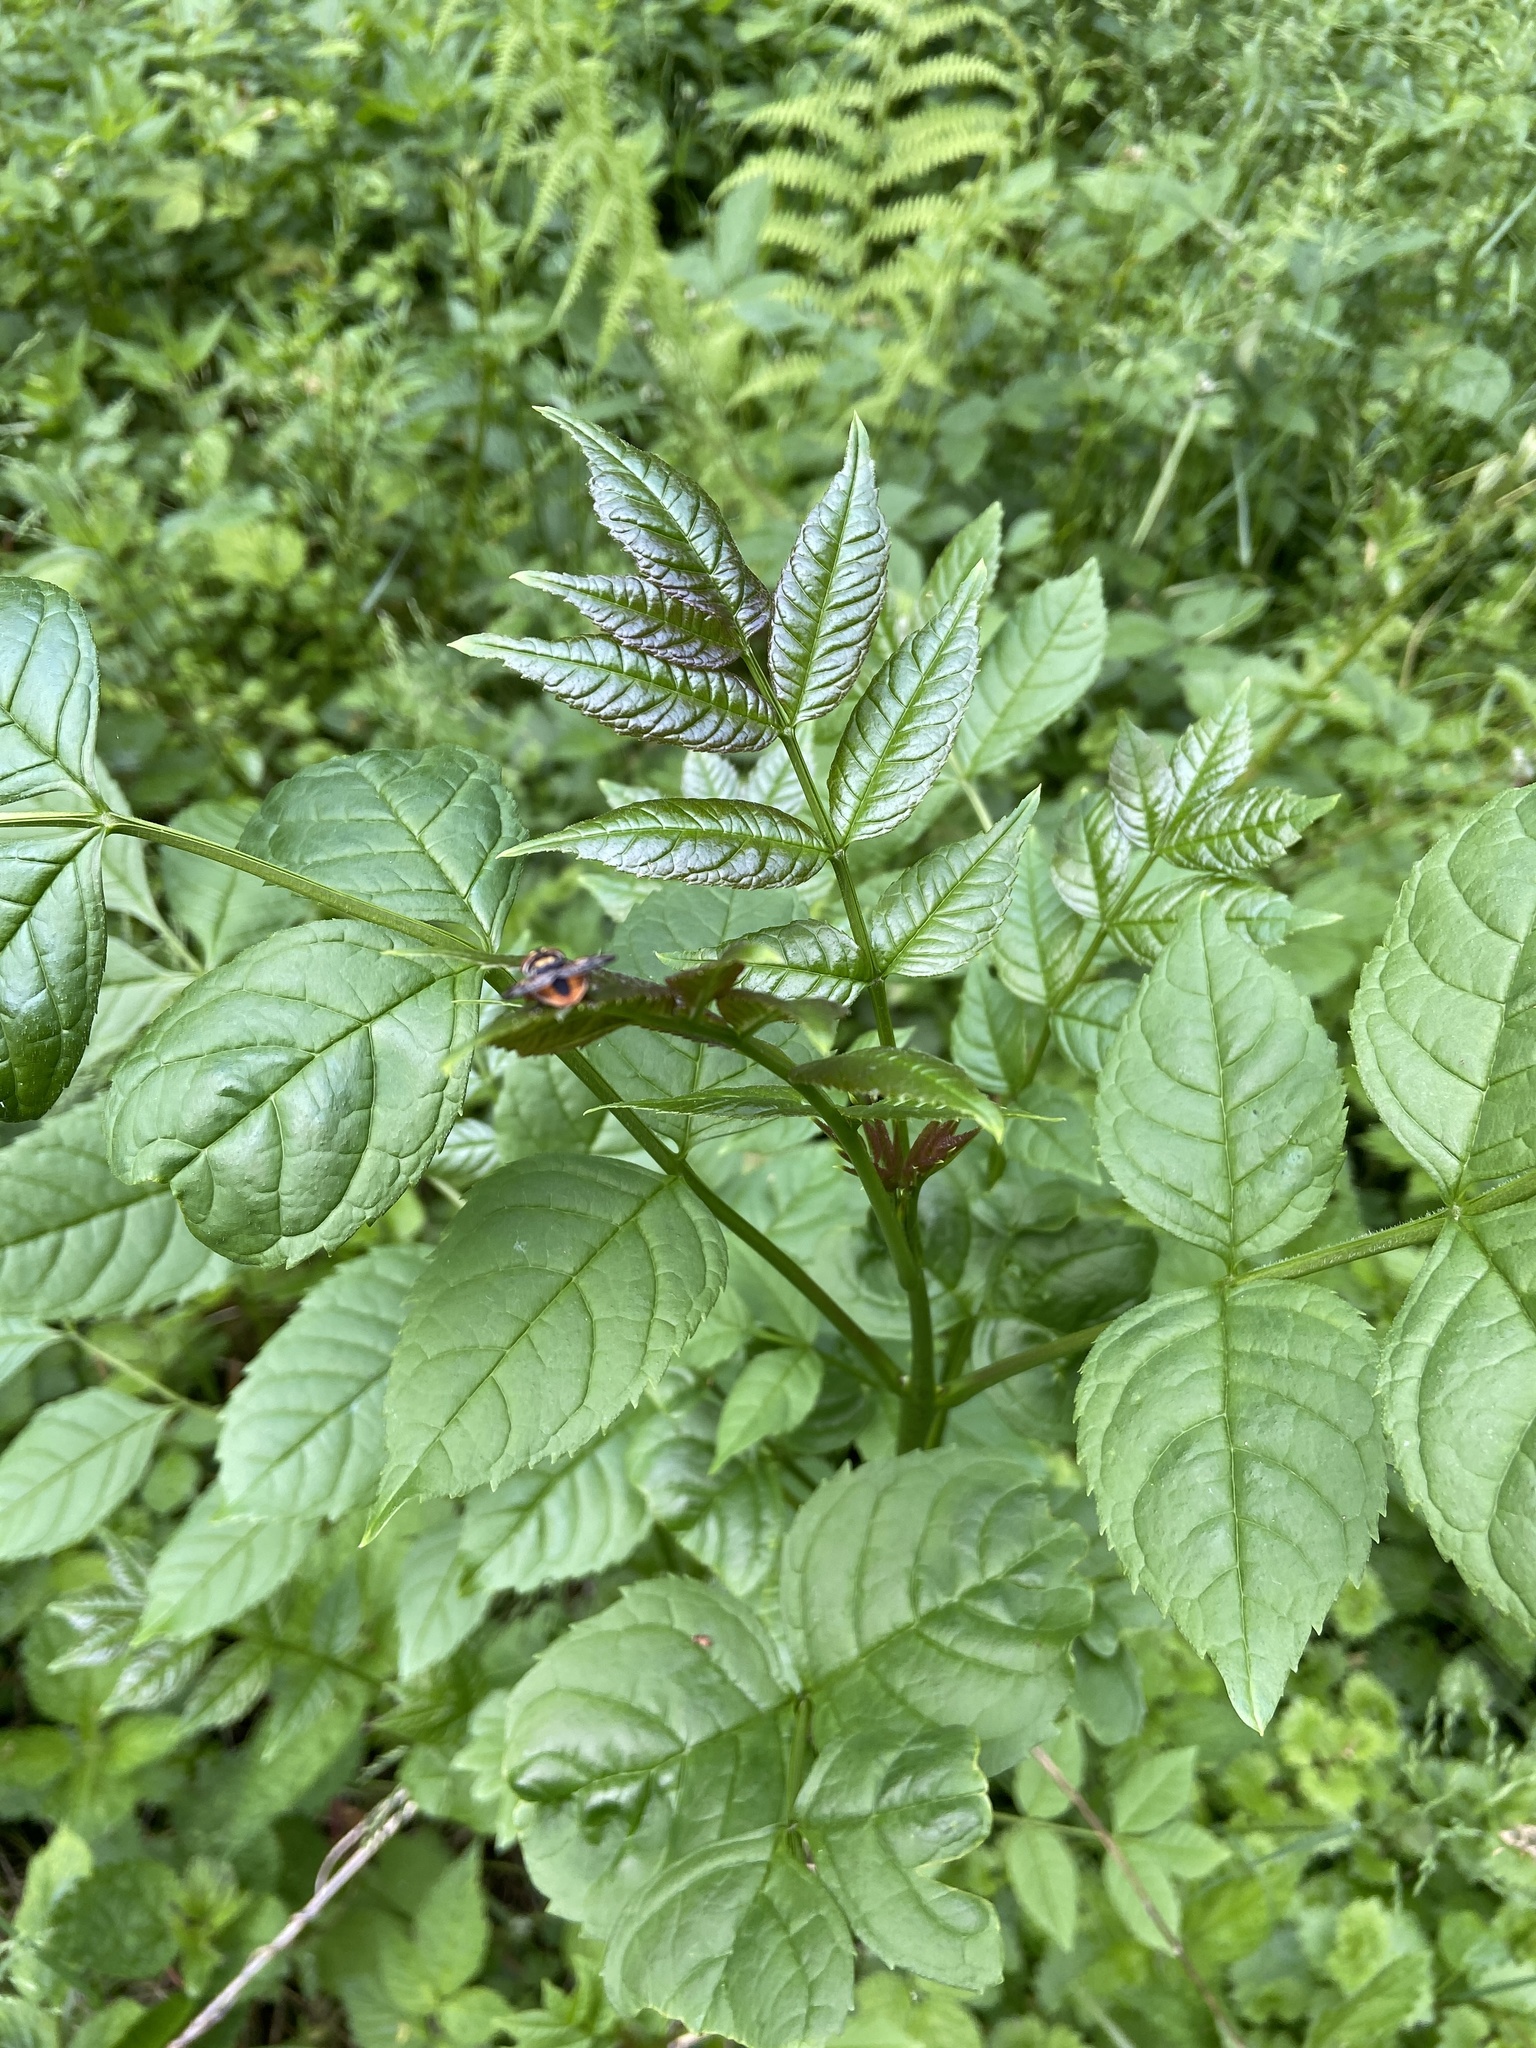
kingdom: Plantae
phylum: Tracheophyta
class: Magnoliopsida
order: Lamiales
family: Oleaceae
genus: Fraxinus
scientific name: Fraxinus excelsior
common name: European ash
